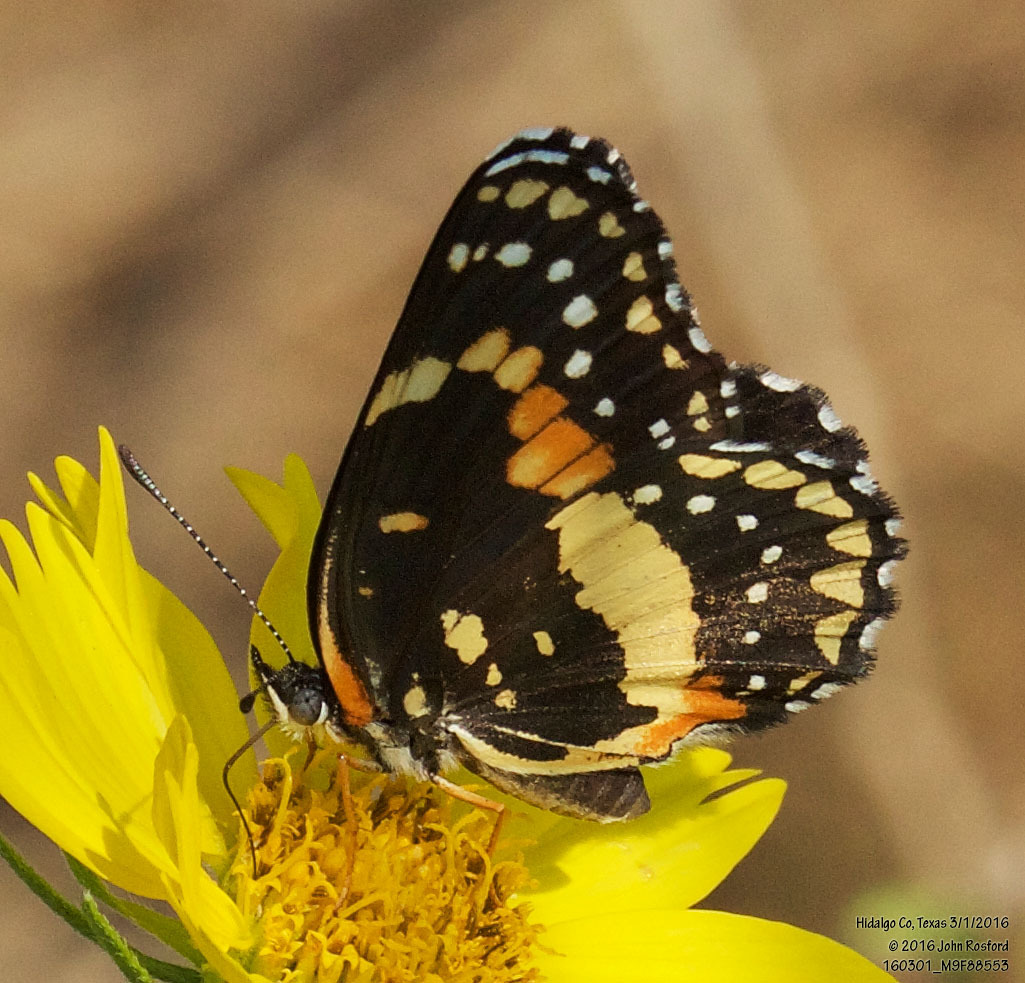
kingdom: Animalia
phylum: Arthropoda
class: Insecta
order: Lepidoptera
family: Nymphalidae
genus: Chlosyne
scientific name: Chlosyne lacinia
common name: Bordered patch
